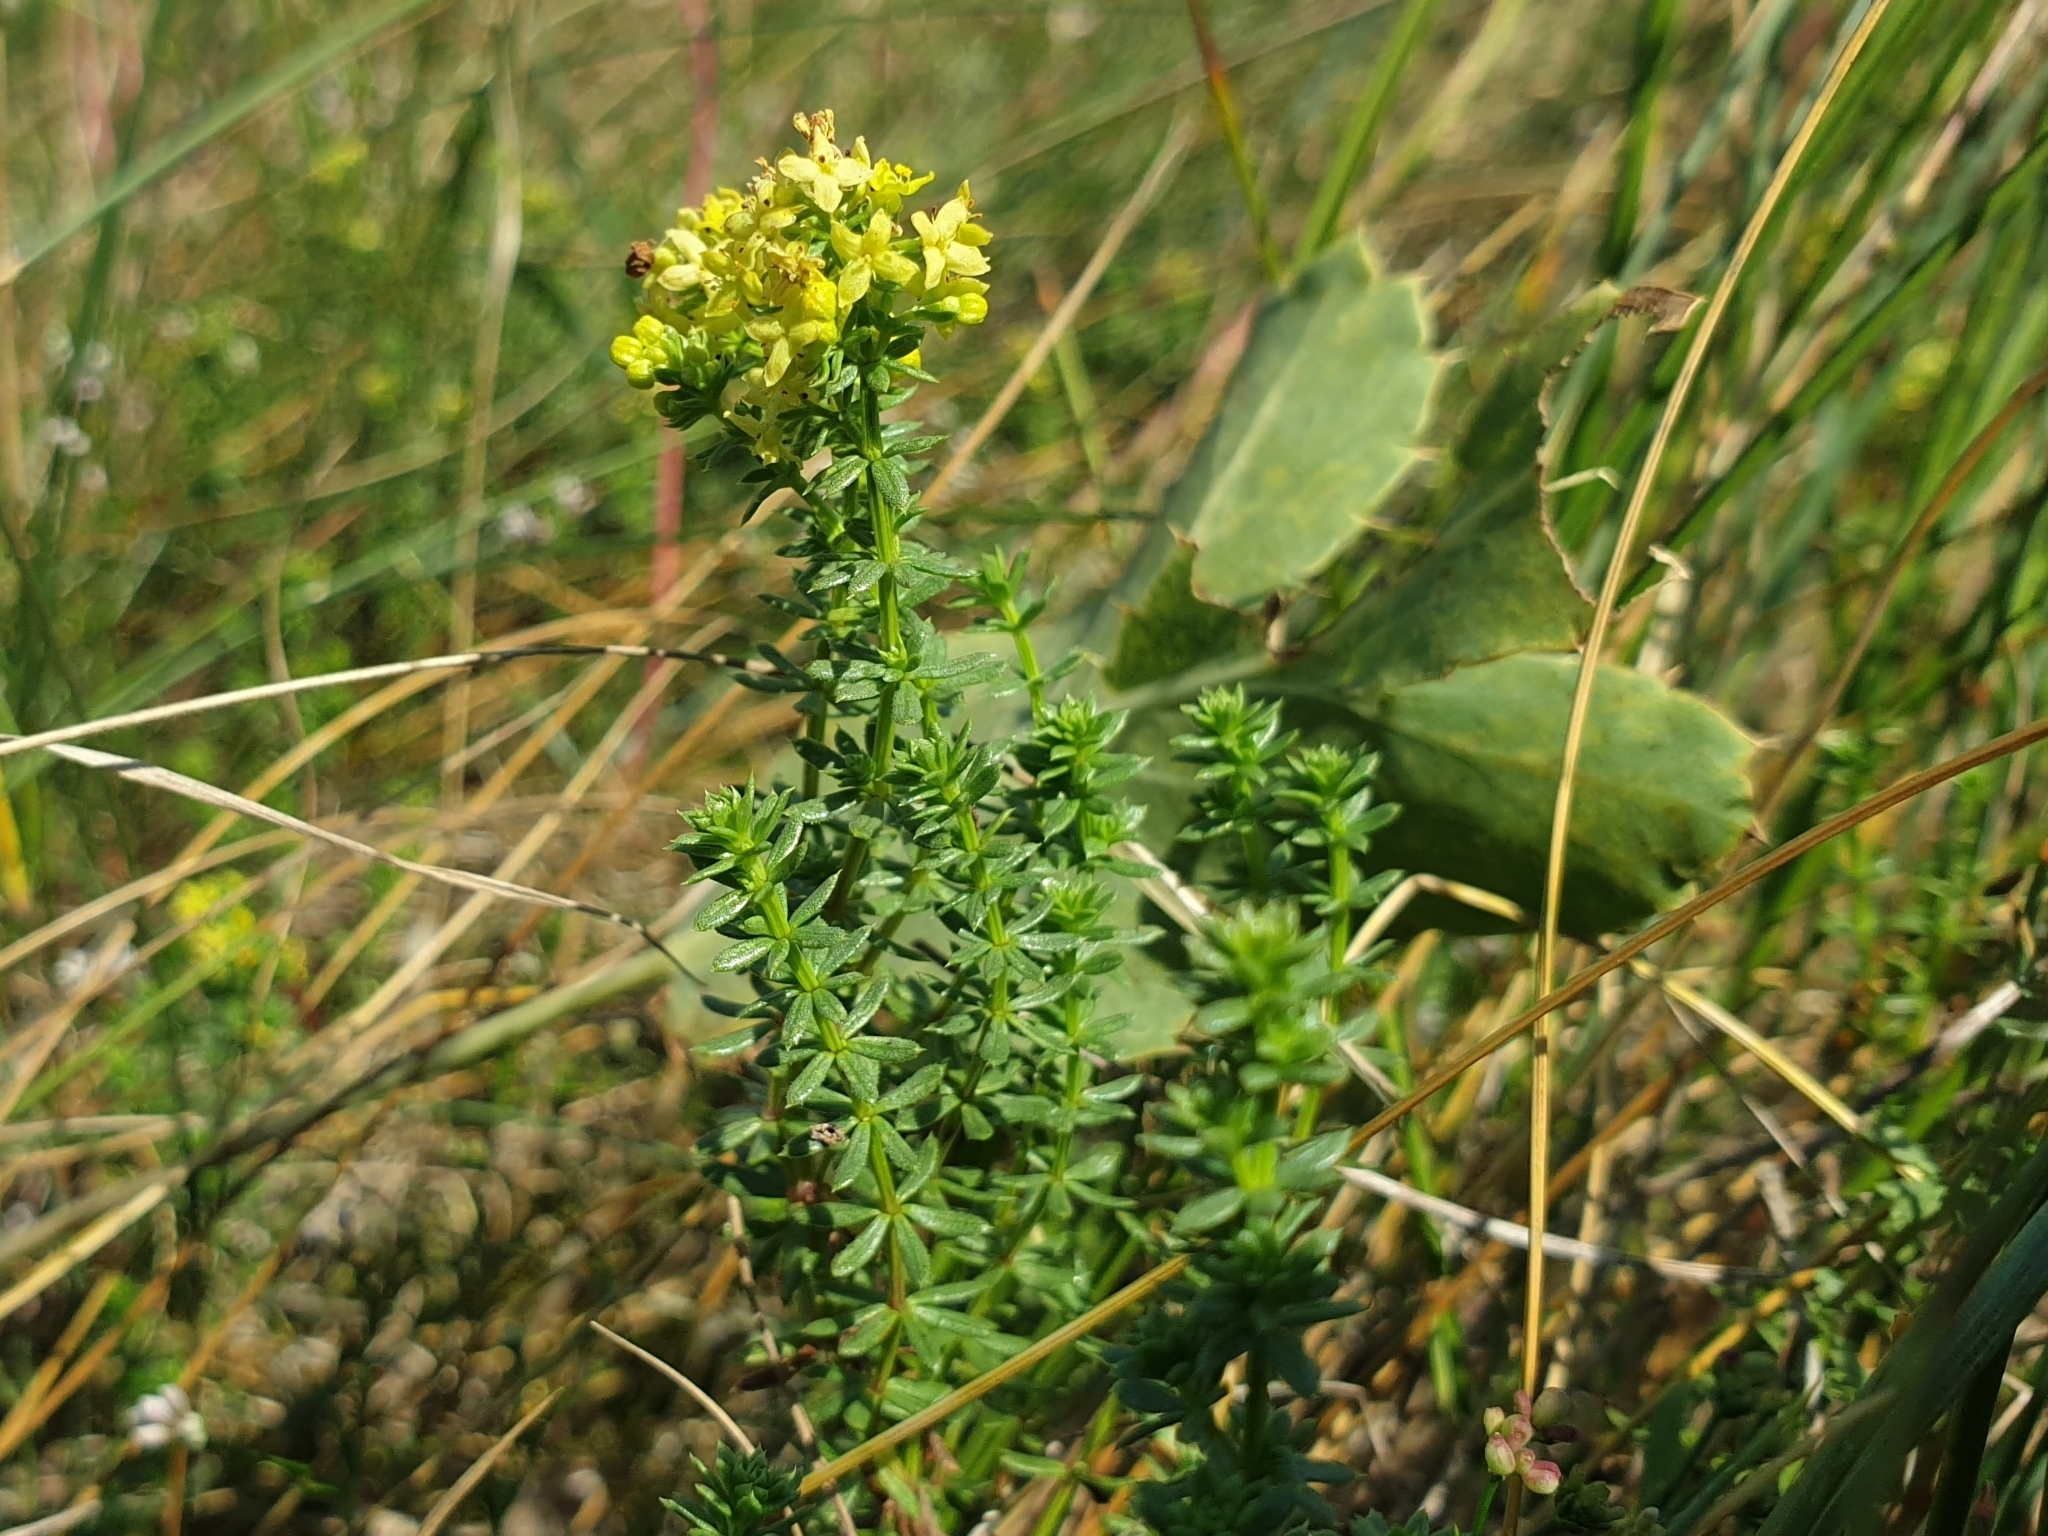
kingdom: Plantae
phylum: Tracheophyta
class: Magnoliopsida
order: Gentianales
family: Rubiaceae
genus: Galium
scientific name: Galium arenarium
